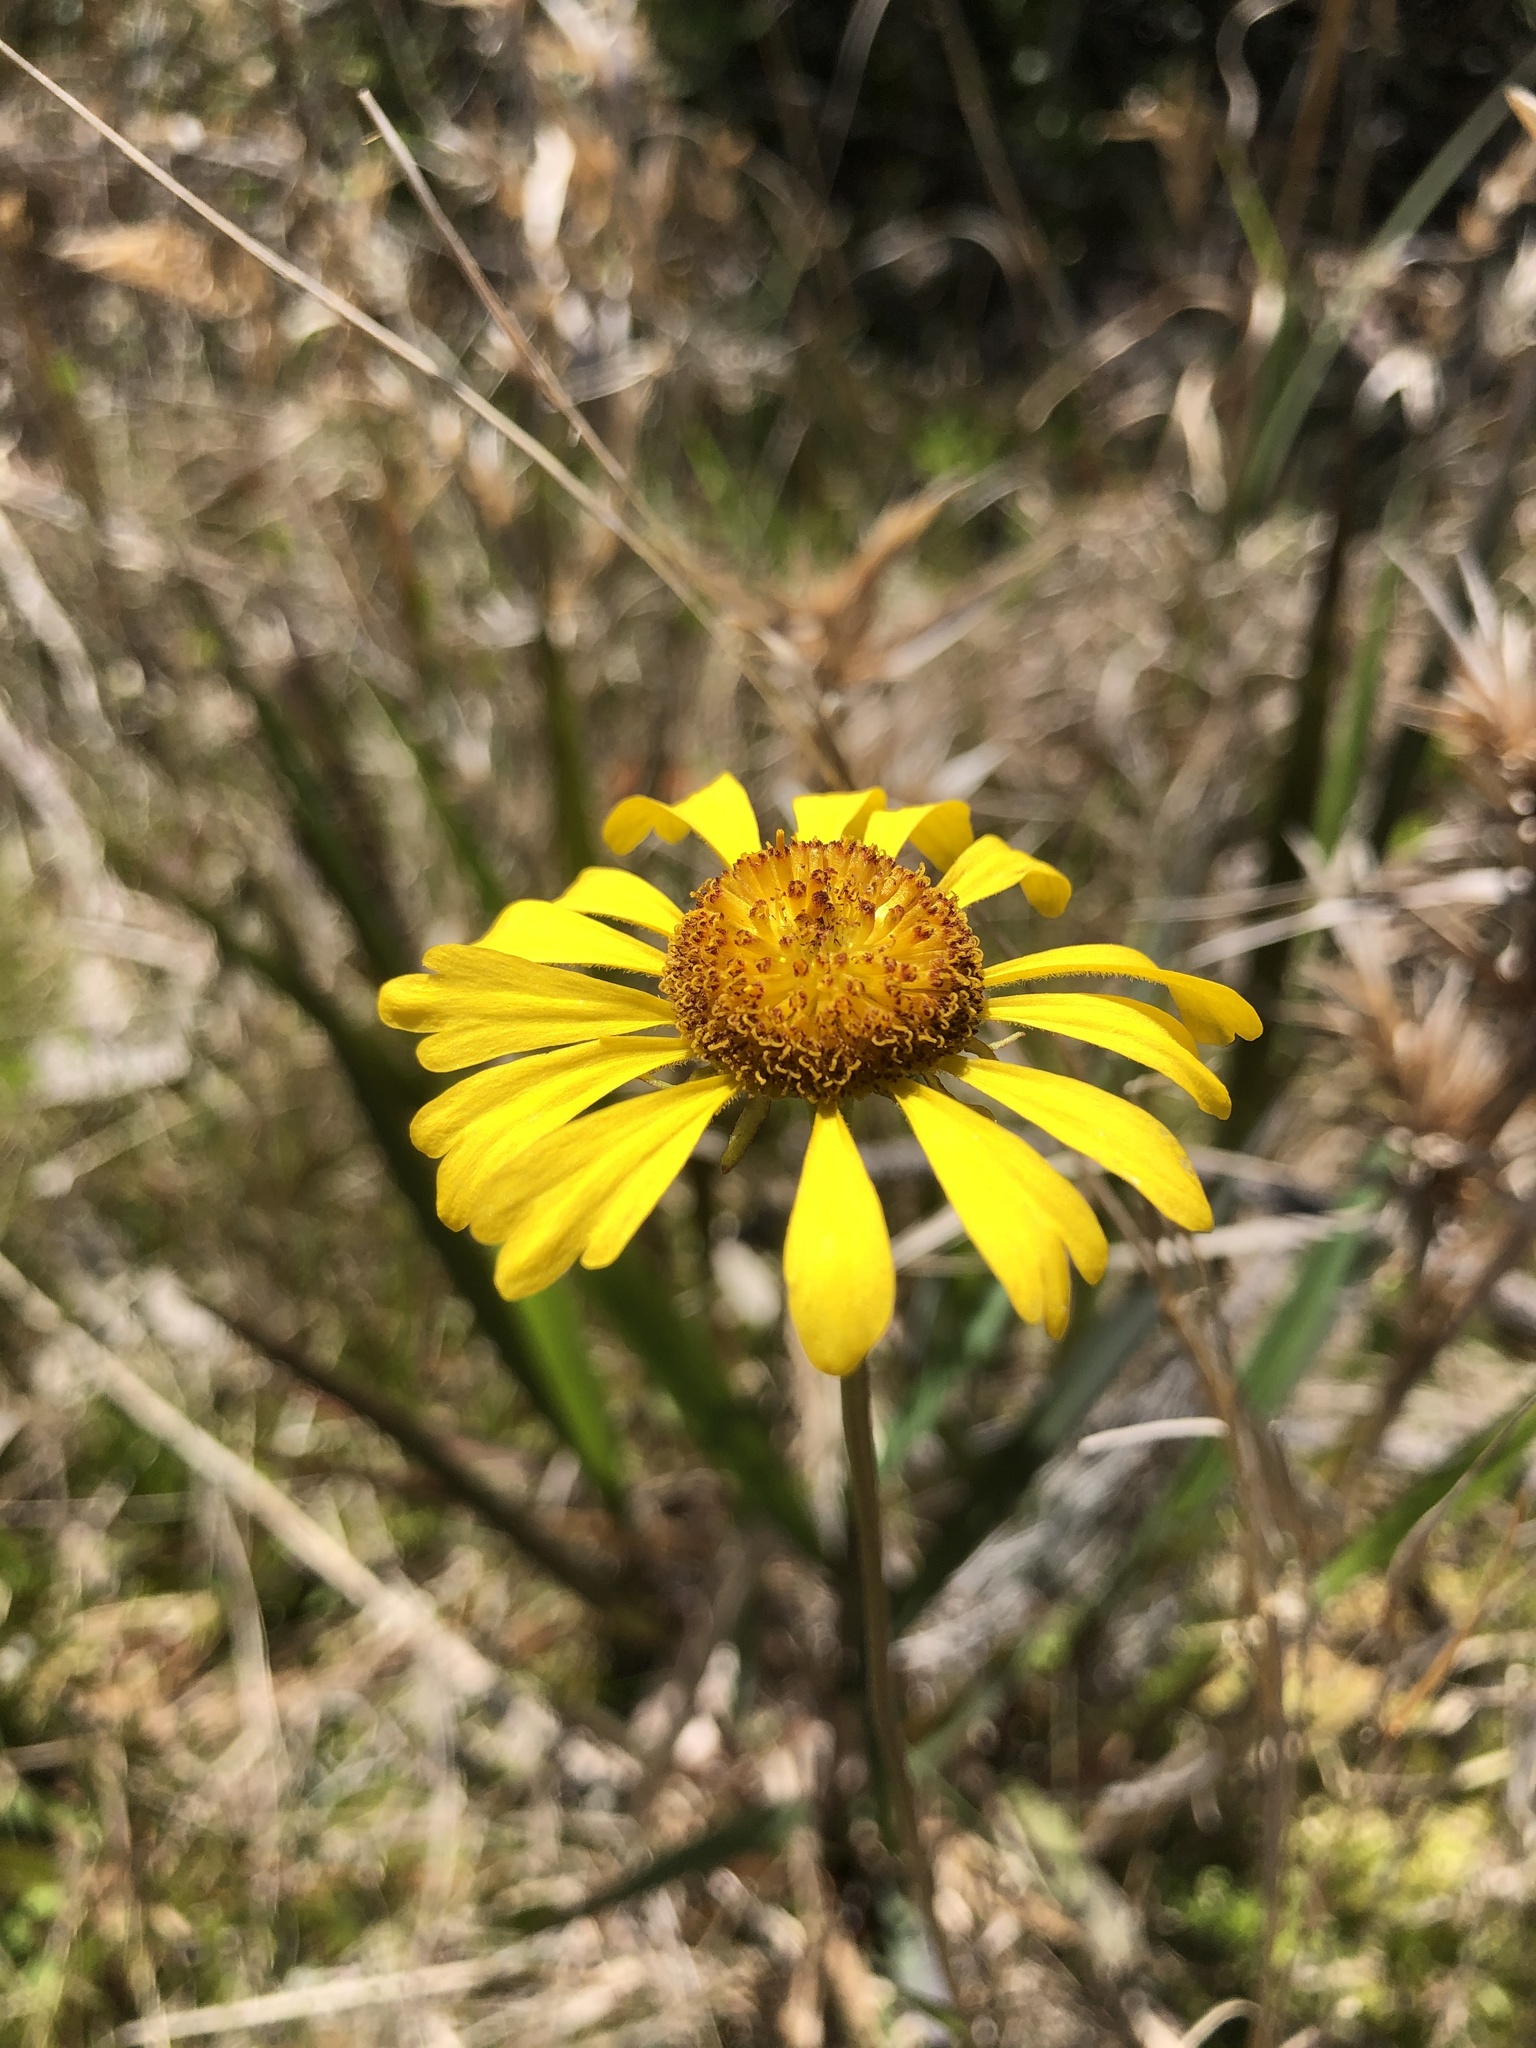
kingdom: Plantae
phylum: Tracheophyta
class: Magnoliopsida
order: Asterales
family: Asteraceae
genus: Helenium
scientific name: Helenium brevifolium
